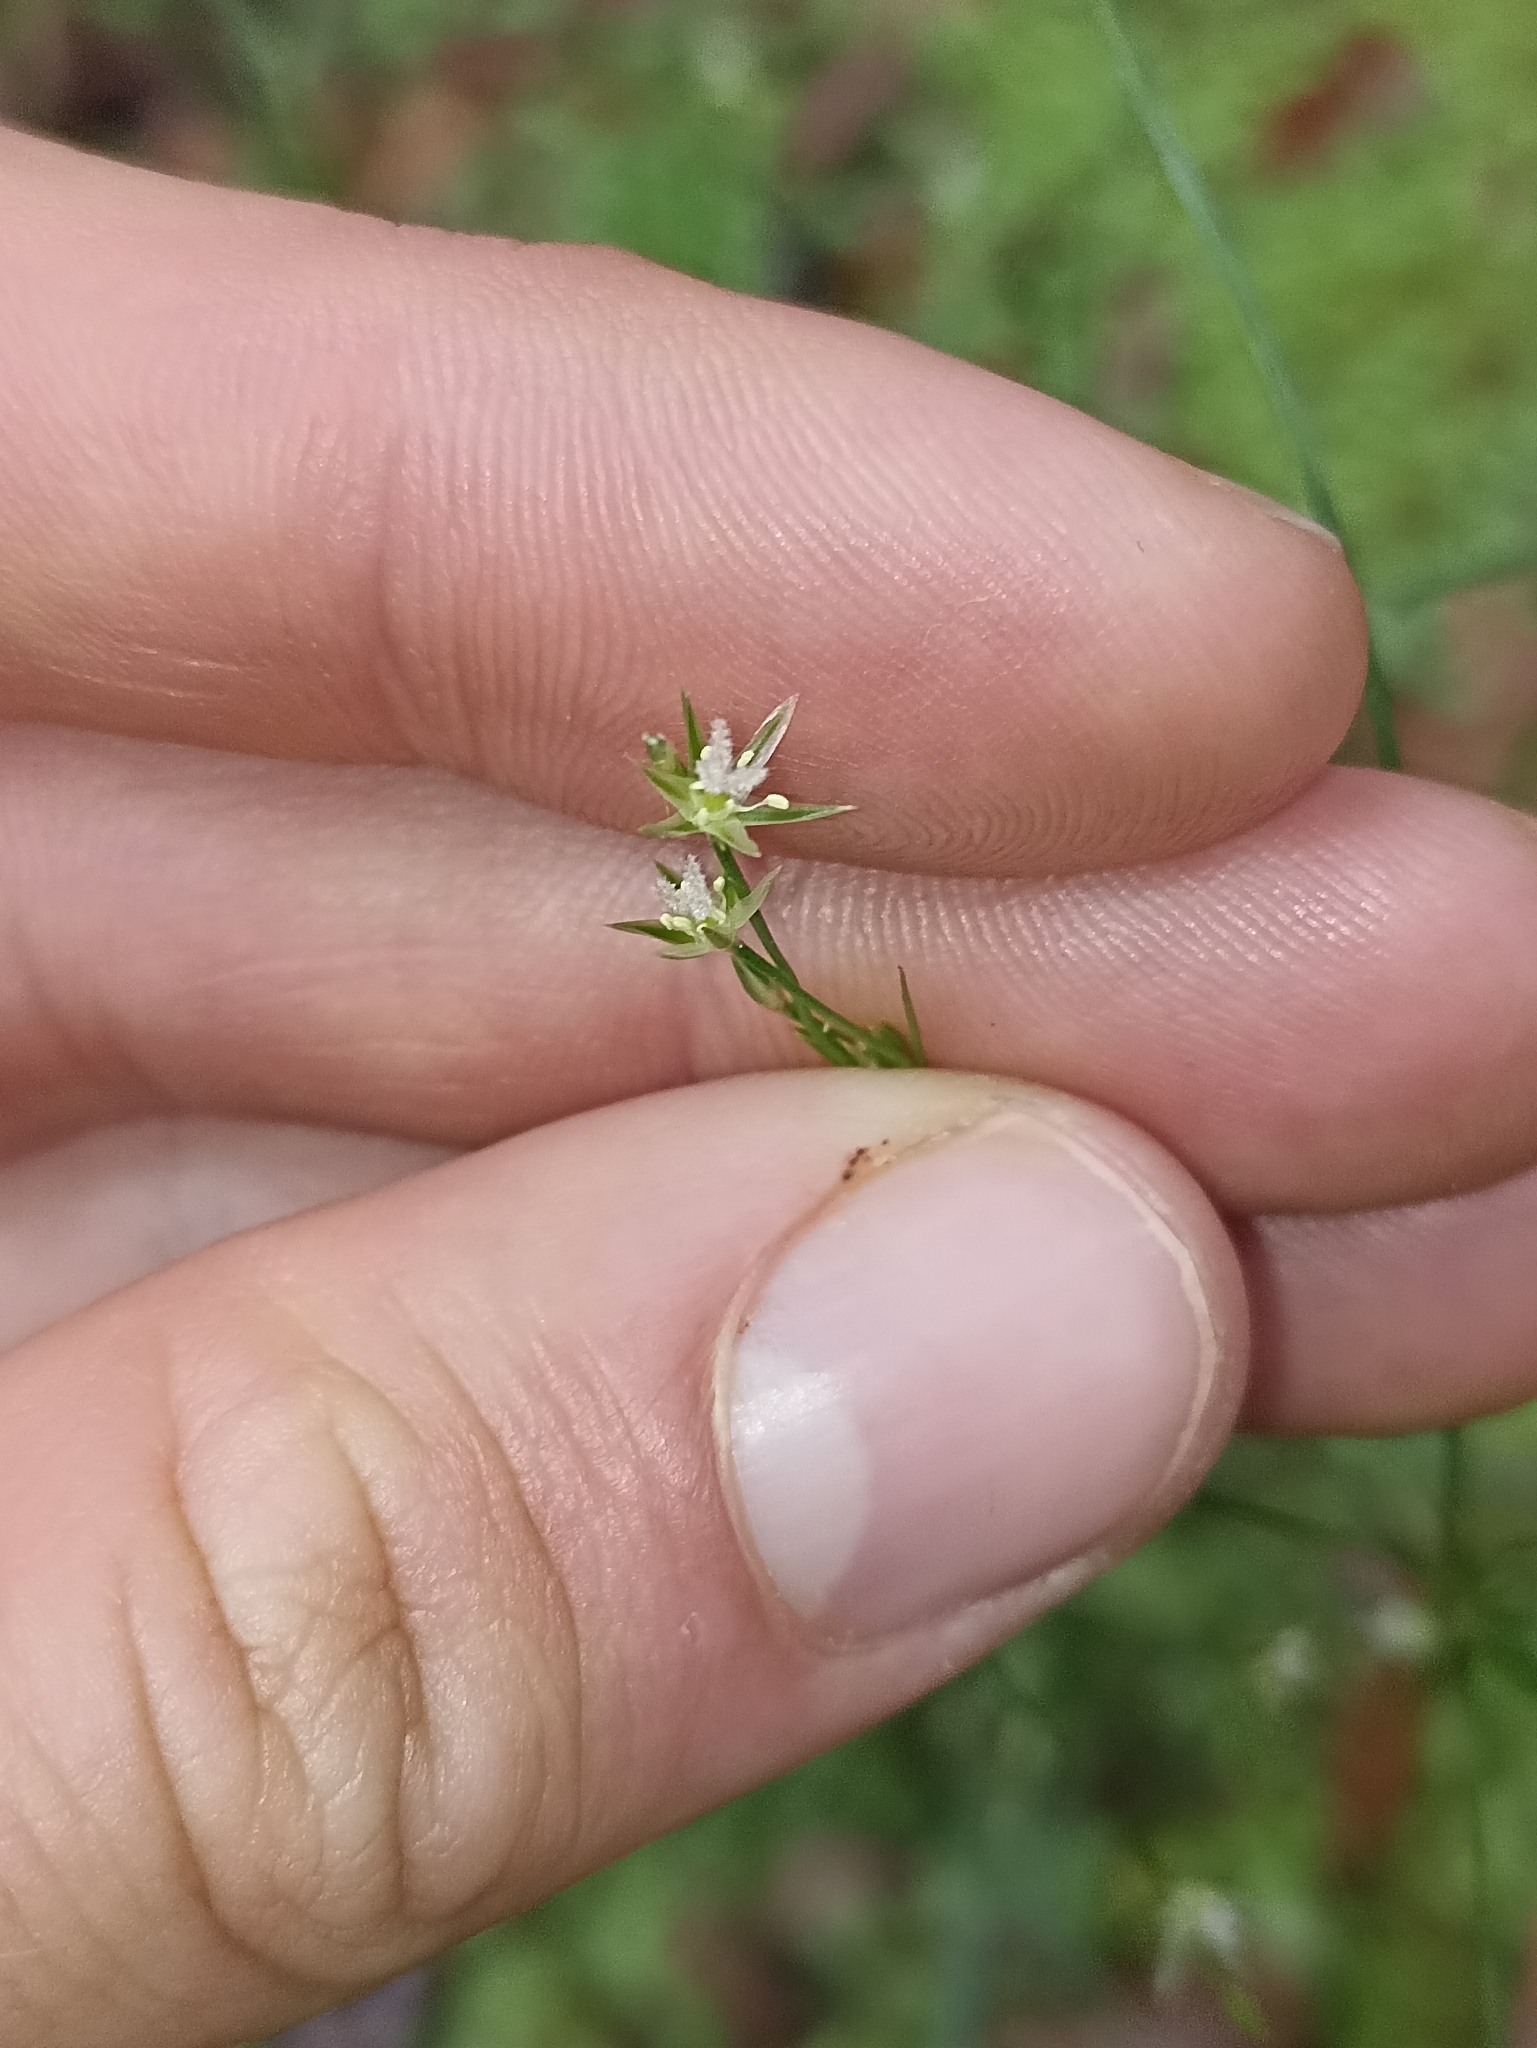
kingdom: Plantae
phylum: Tracheophyta
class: Liliopsida
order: Poales
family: Juncaceae
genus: Juncus
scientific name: Juncus tenuis
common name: Slender rush
